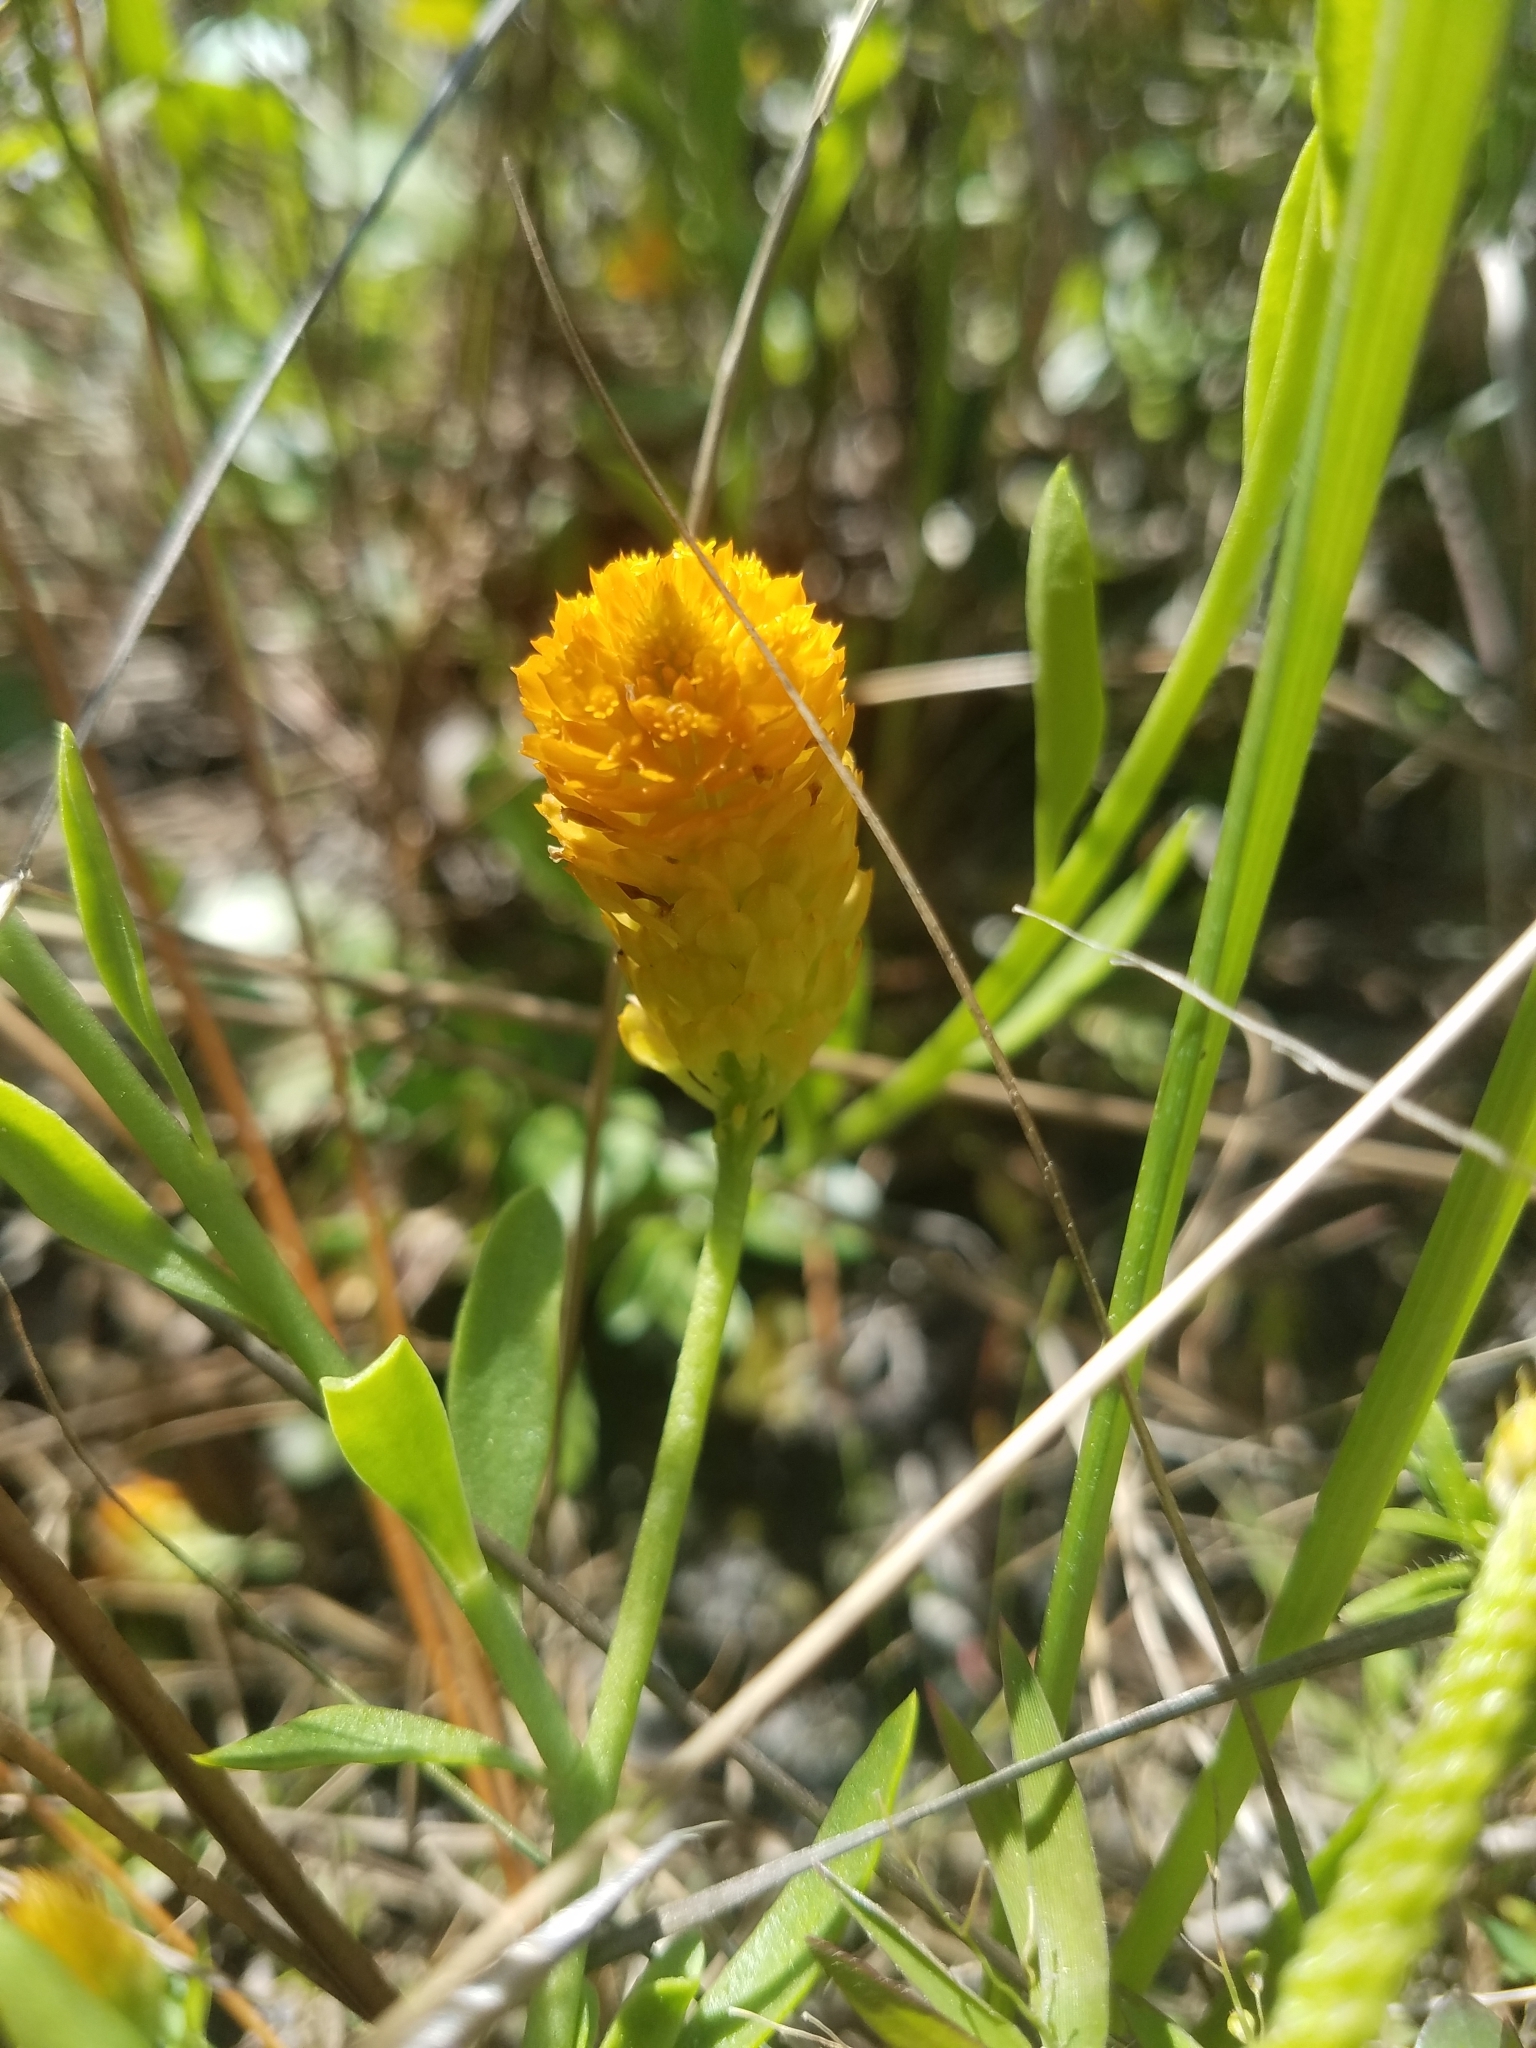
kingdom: Plantae
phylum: Tracheophyta
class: Magnoliopsida
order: Fabales
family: Polygalaceae
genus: Polygala
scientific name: Polygala lutea
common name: Orange milkwort
